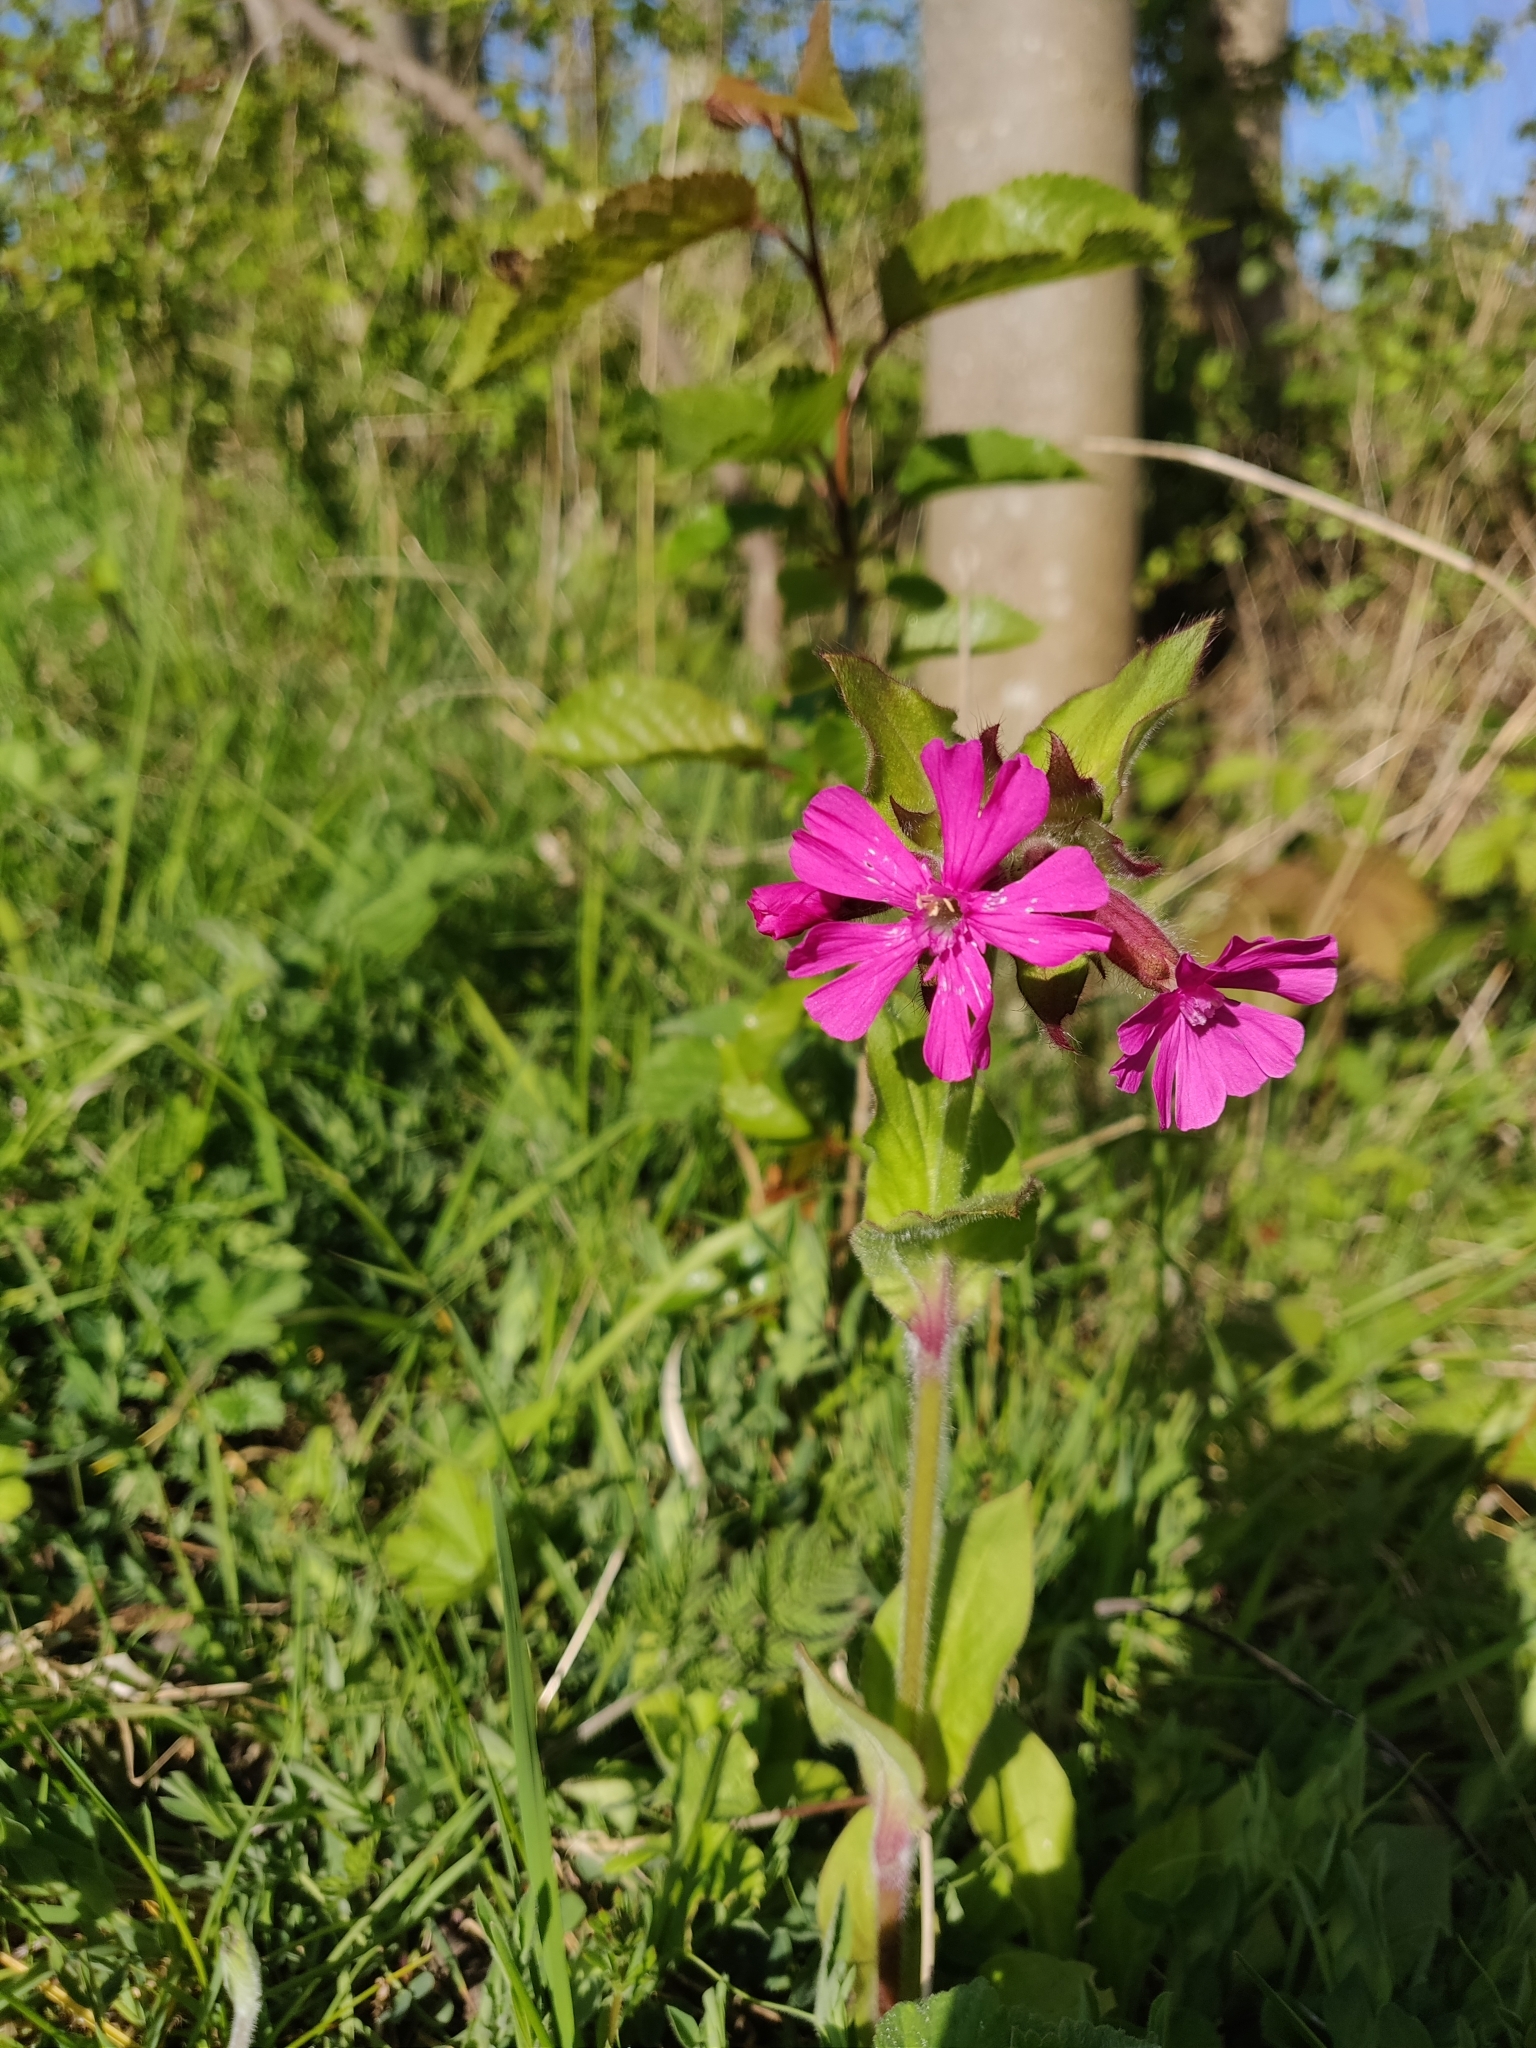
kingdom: Plantae
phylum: Tracheophyta
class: Magnoliopsida
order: Caryophyllales
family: Caryophyllaceae
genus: Silene
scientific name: Silene dioica
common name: Red campion
